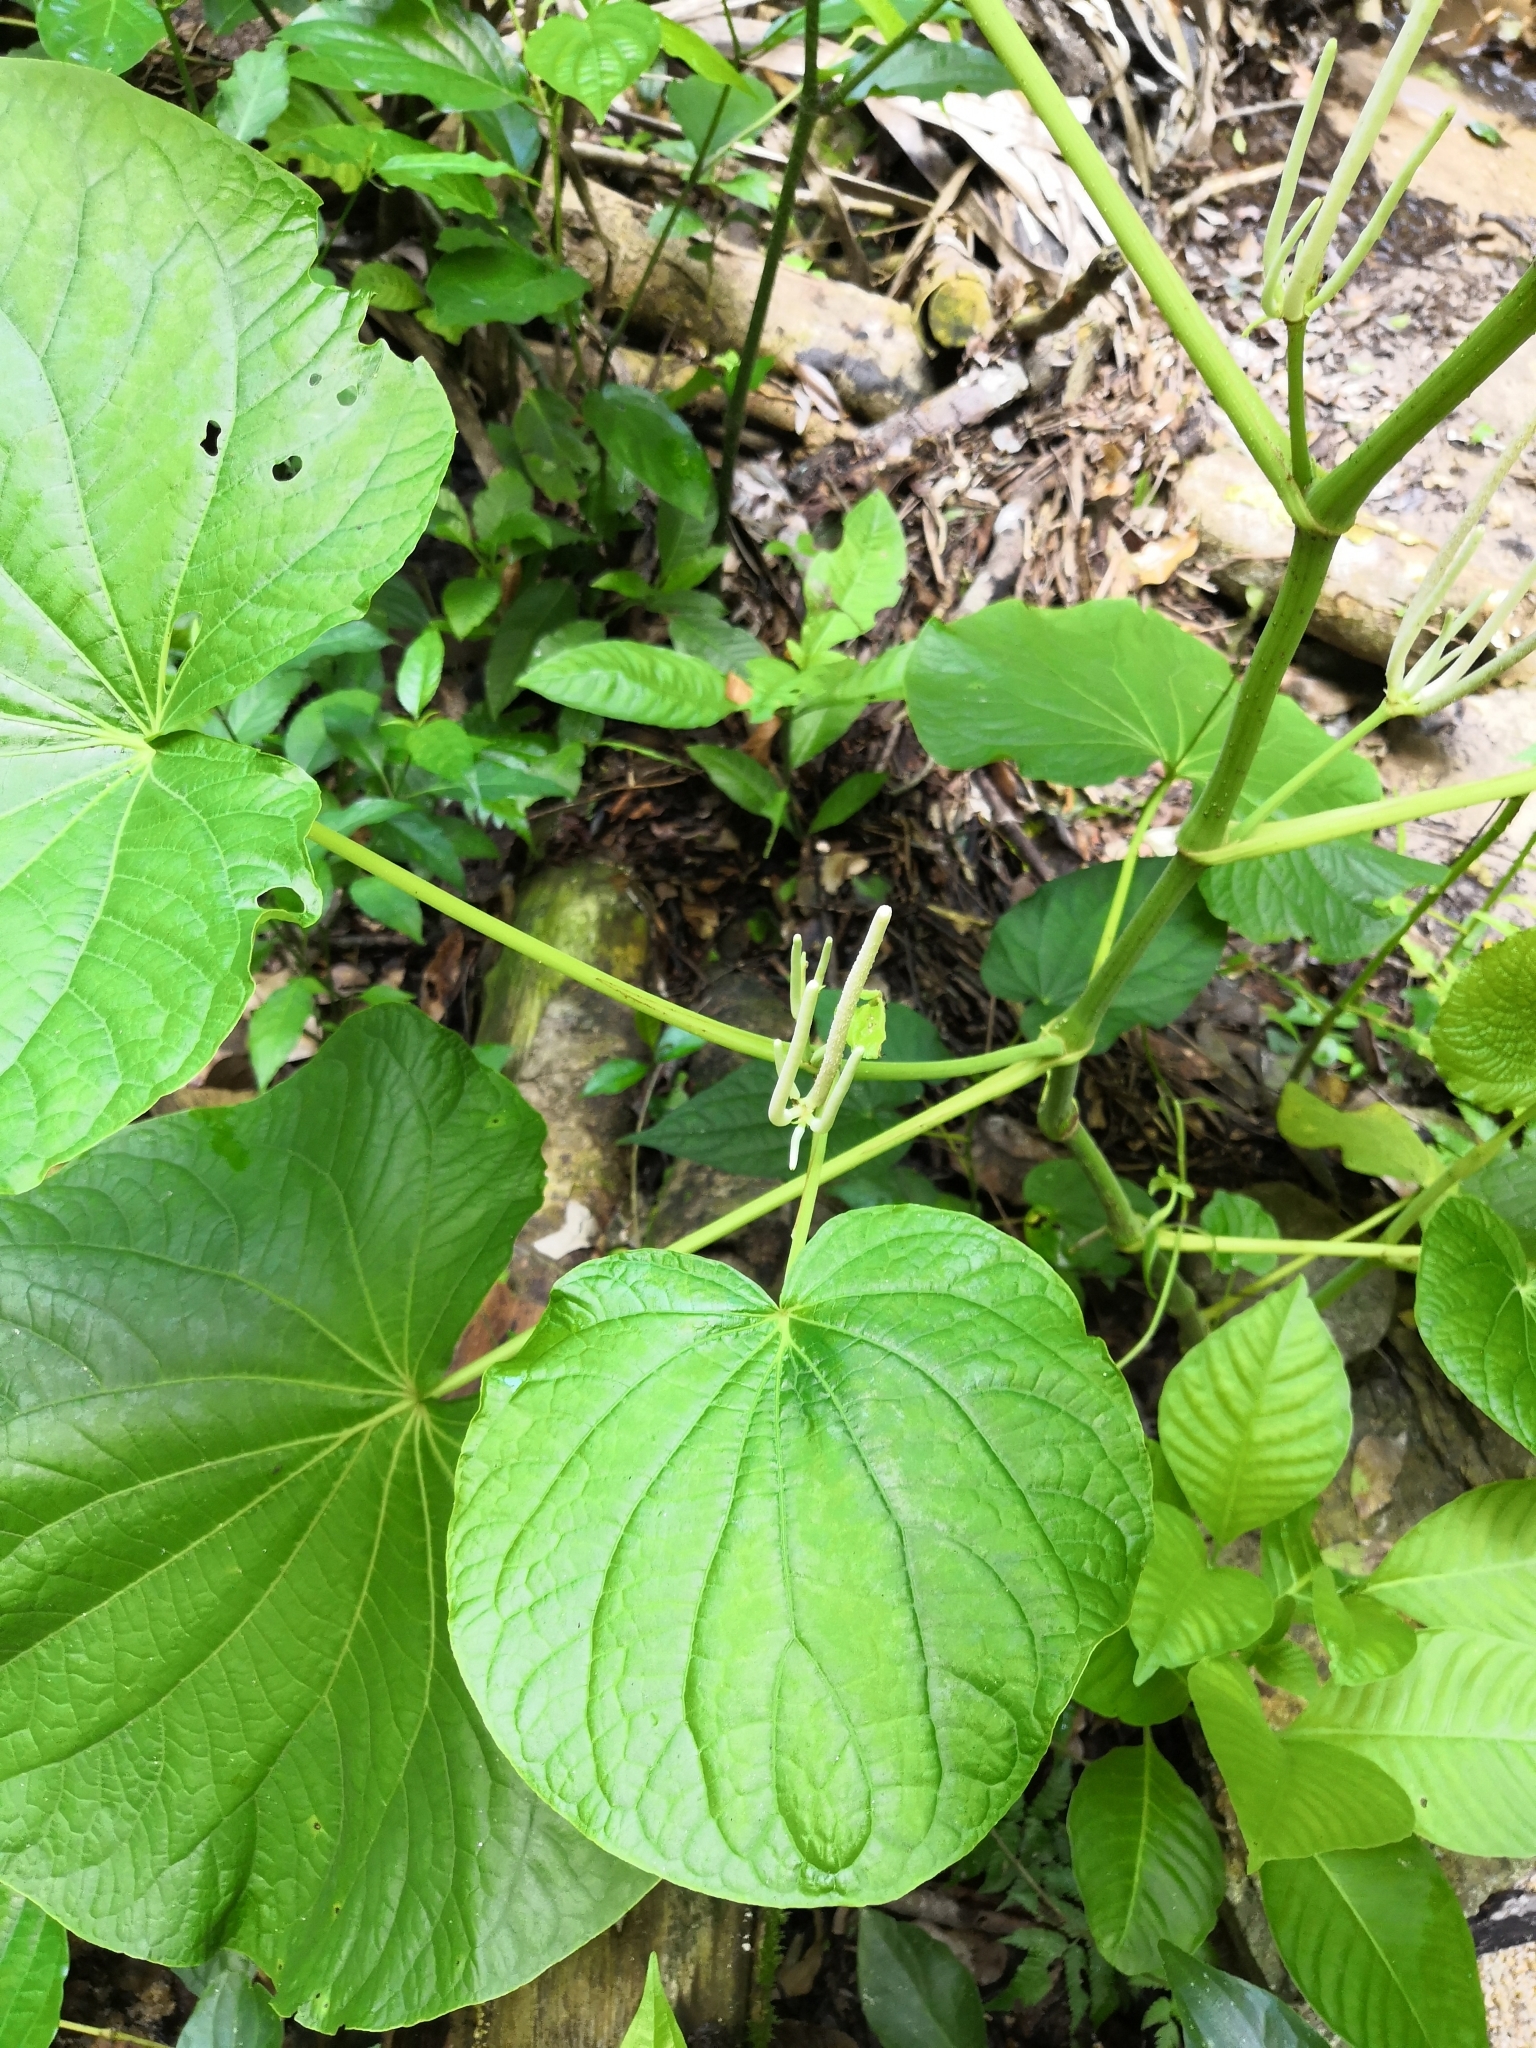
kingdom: Plantae
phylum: Tracheophyta
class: Magnoliopsida
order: Piperales
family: Piperaceae
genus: Piper
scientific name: Piper umbellatum
